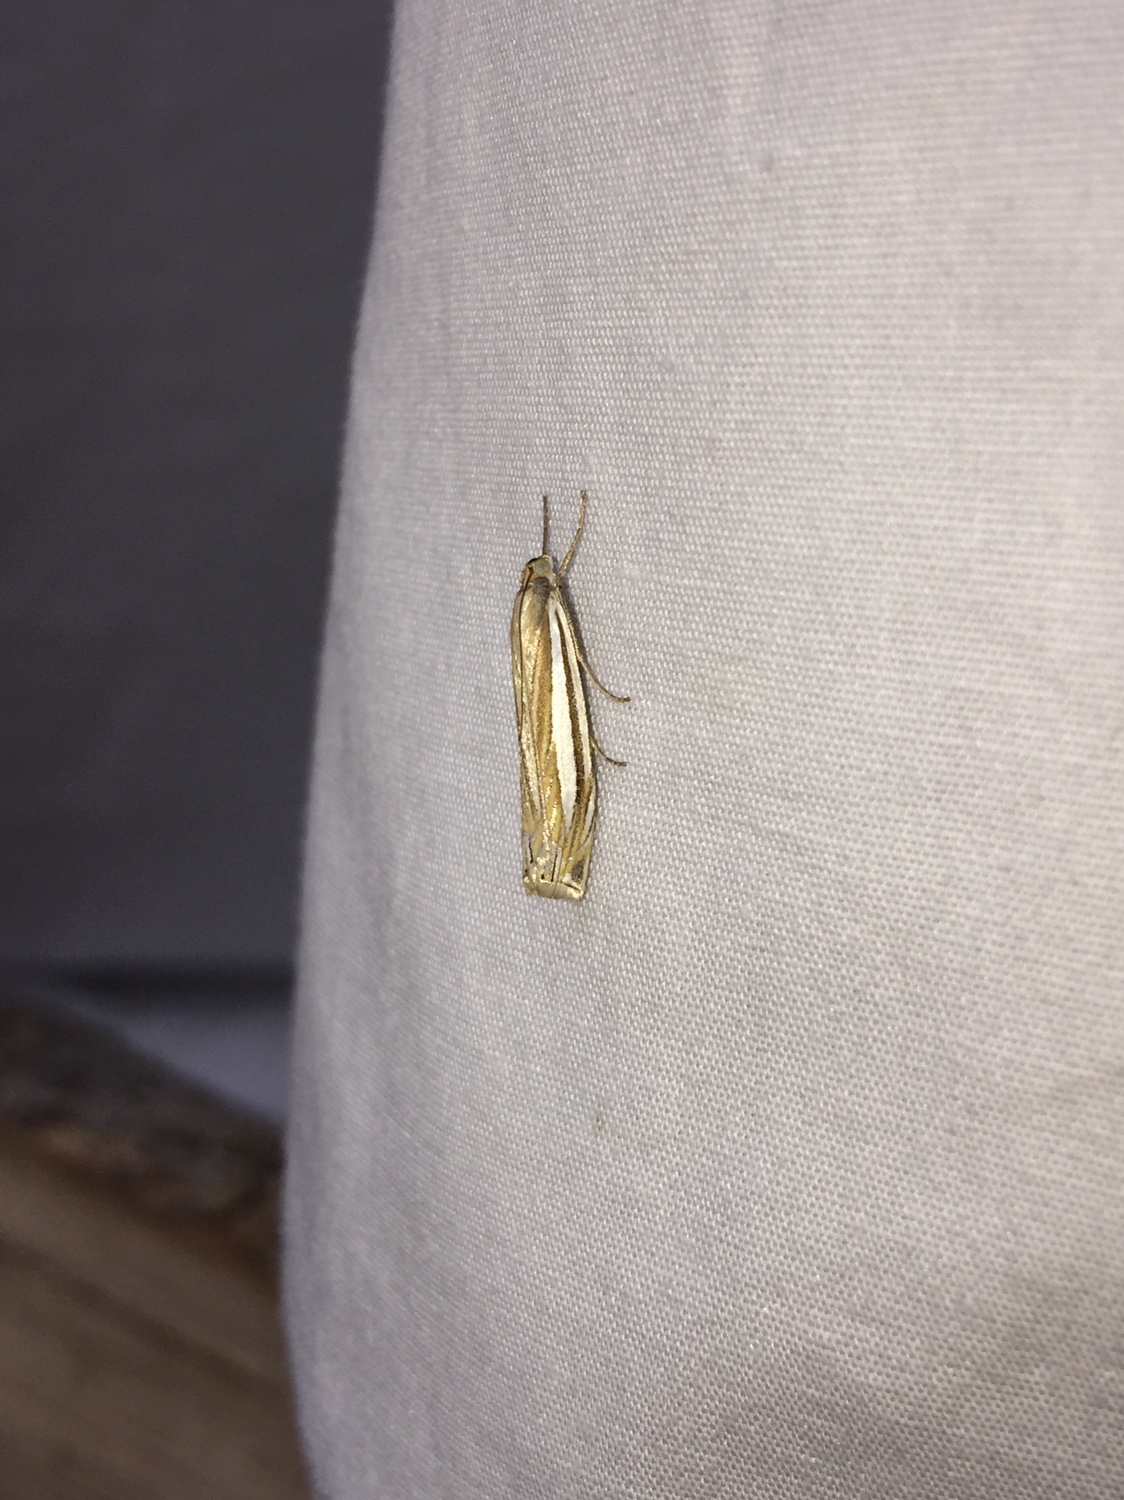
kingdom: Animalia
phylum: Arthropoda
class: Insecta
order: Lepidoptera
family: Crambidae
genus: Crambus
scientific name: Crambus laqueatellus
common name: Eastern grass-veneer
